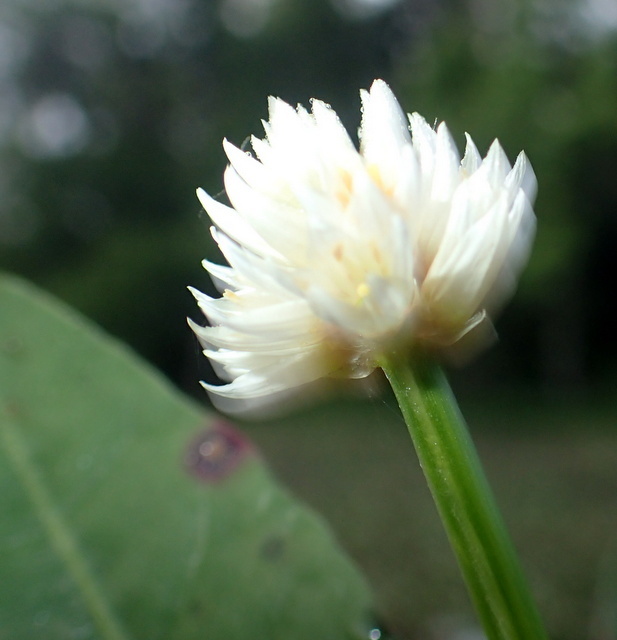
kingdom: Plantae
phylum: Tracheophyta
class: Magnoliopsida
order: Caryophyllales
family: Amaranthaceae
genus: Alternanthera
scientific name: Alternanthera philoxeroides
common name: Alligatorweed
